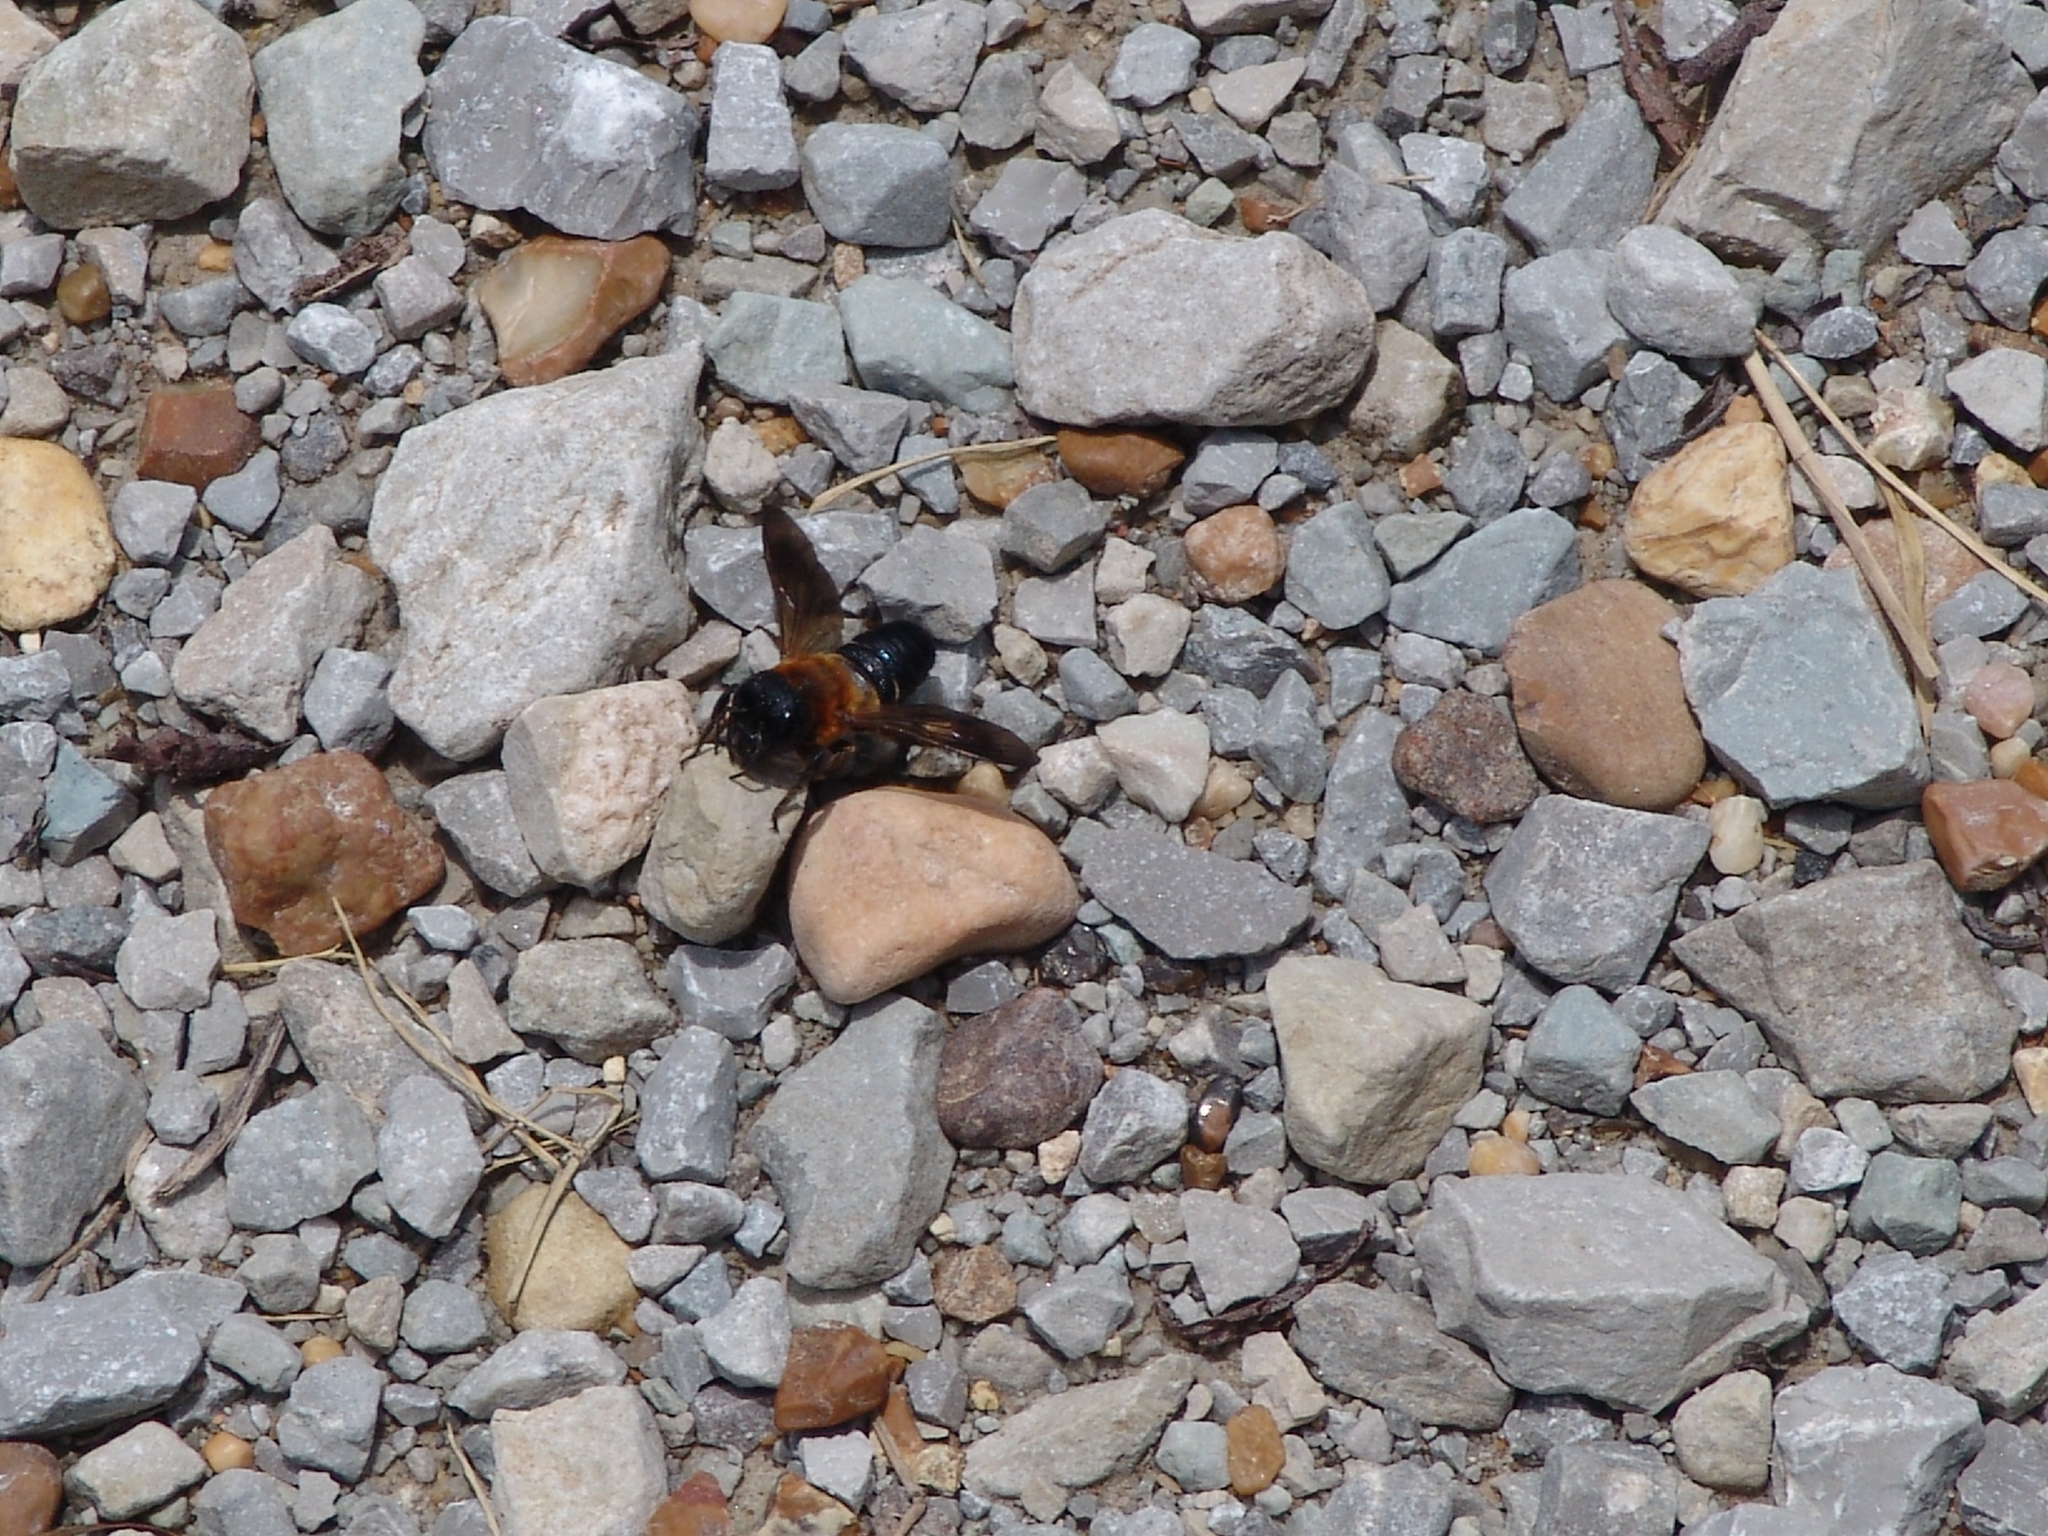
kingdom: Animalia
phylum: Arthropoda
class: Insecta
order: Hymenoptera
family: Megachilidae
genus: Megachile
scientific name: Megachile sculpturalis
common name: Sculptured resin bee
